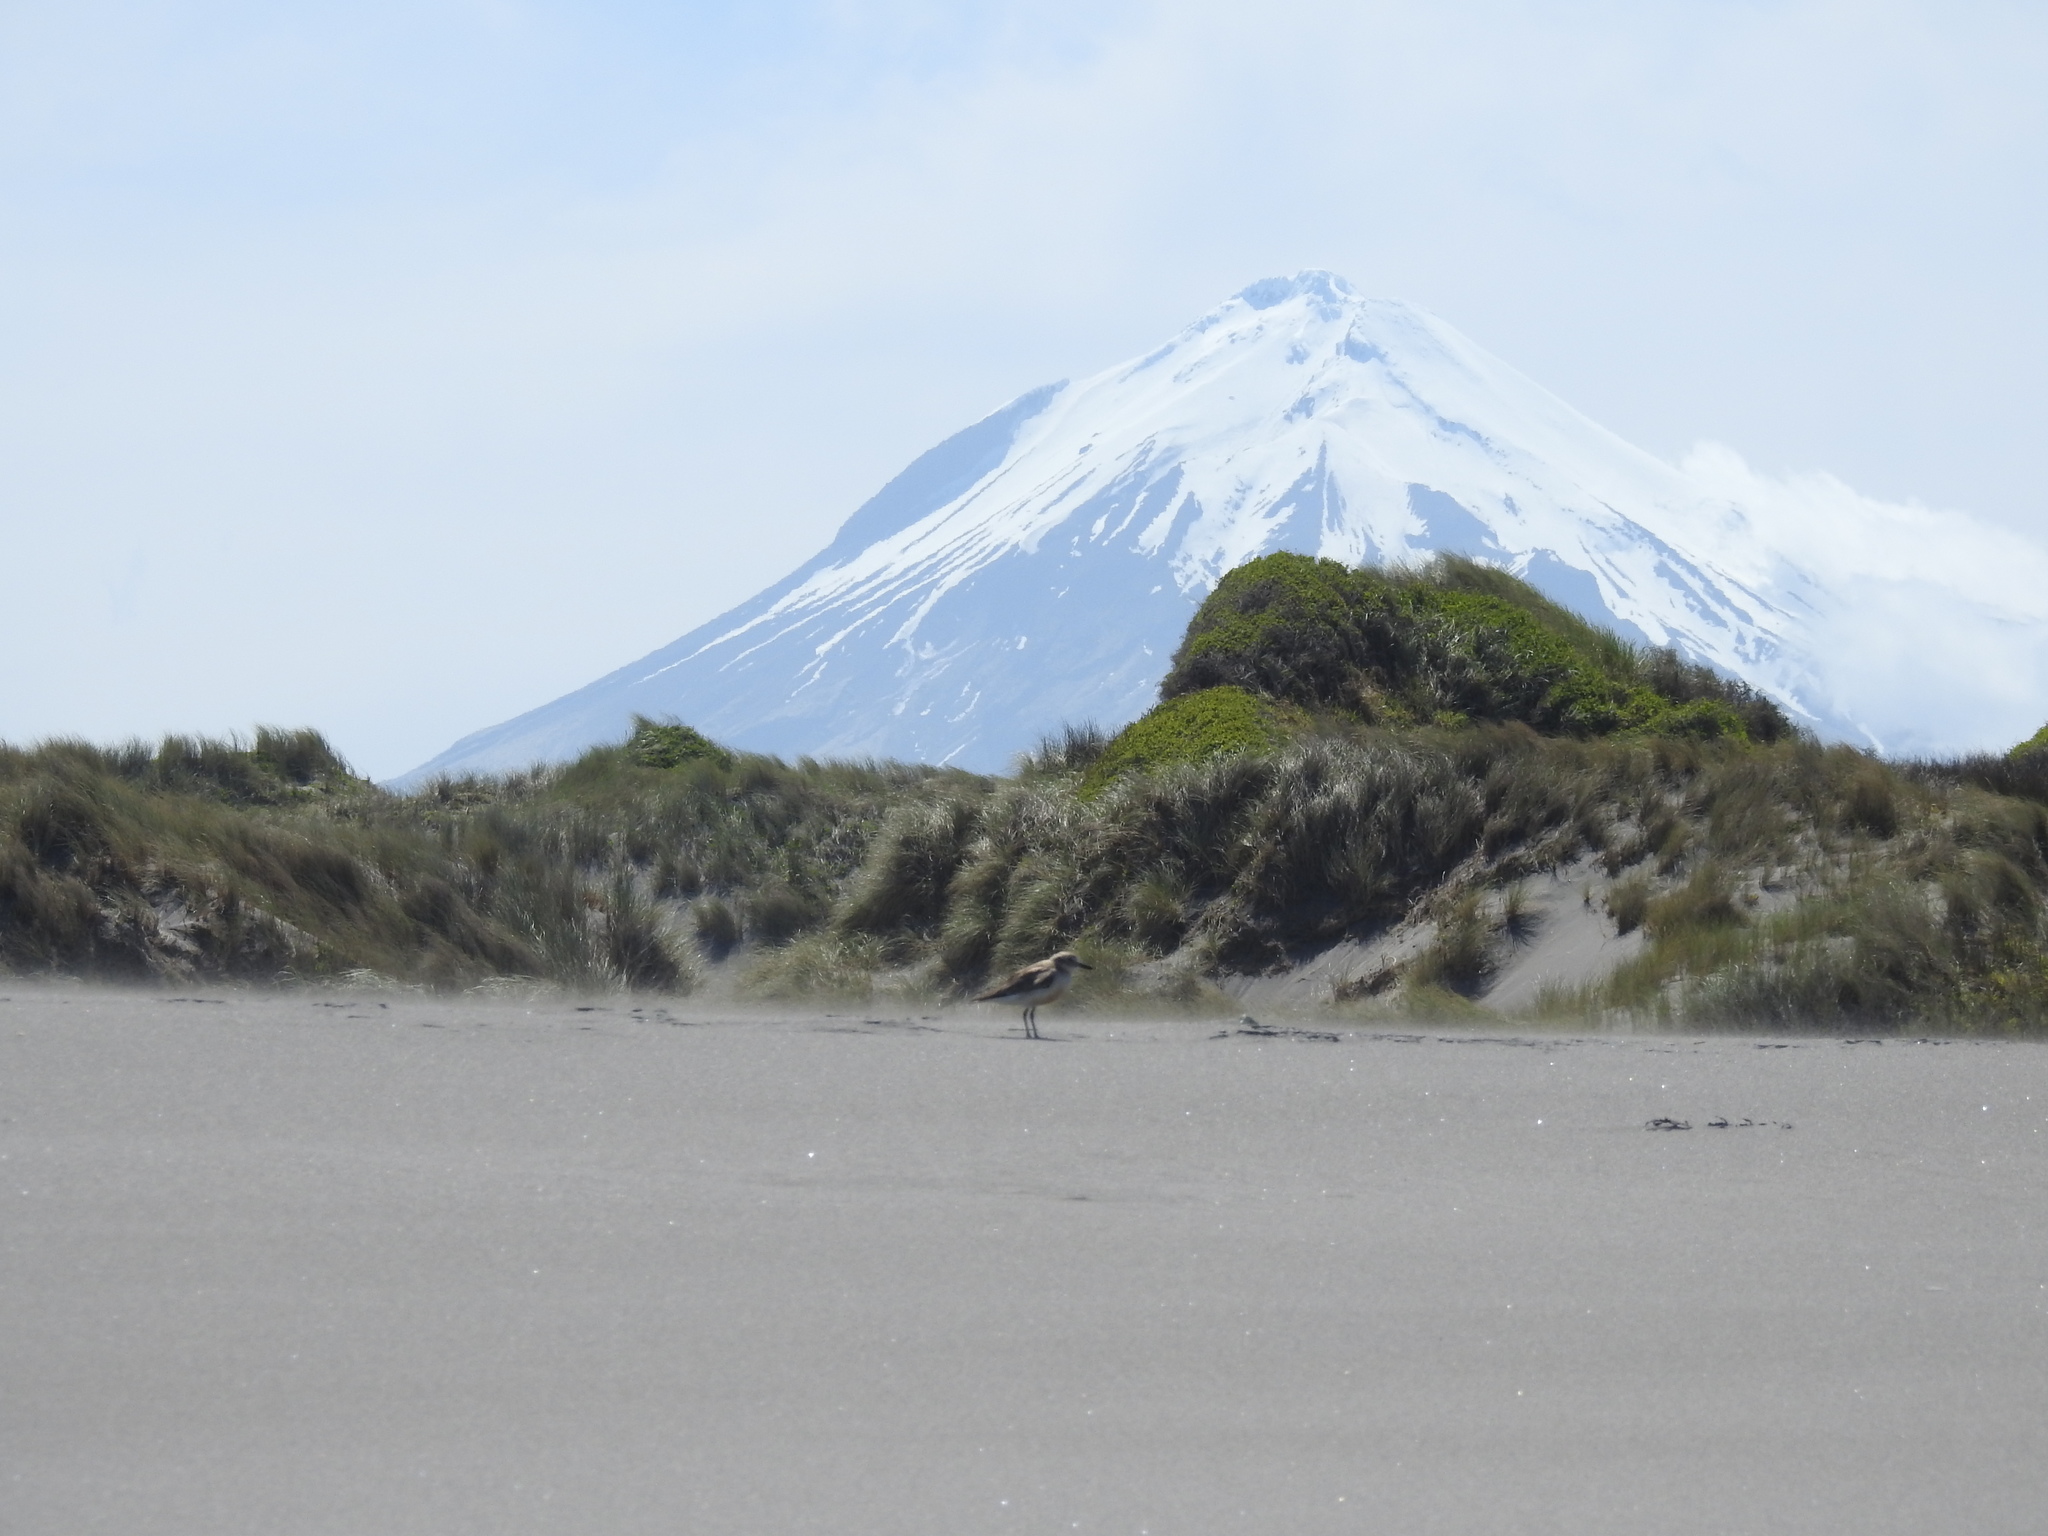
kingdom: Animalia
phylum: Chordata
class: Aves
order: Charadriiformes
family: Charadriidae
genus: Anarhynchus
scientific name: Anarhynchus
